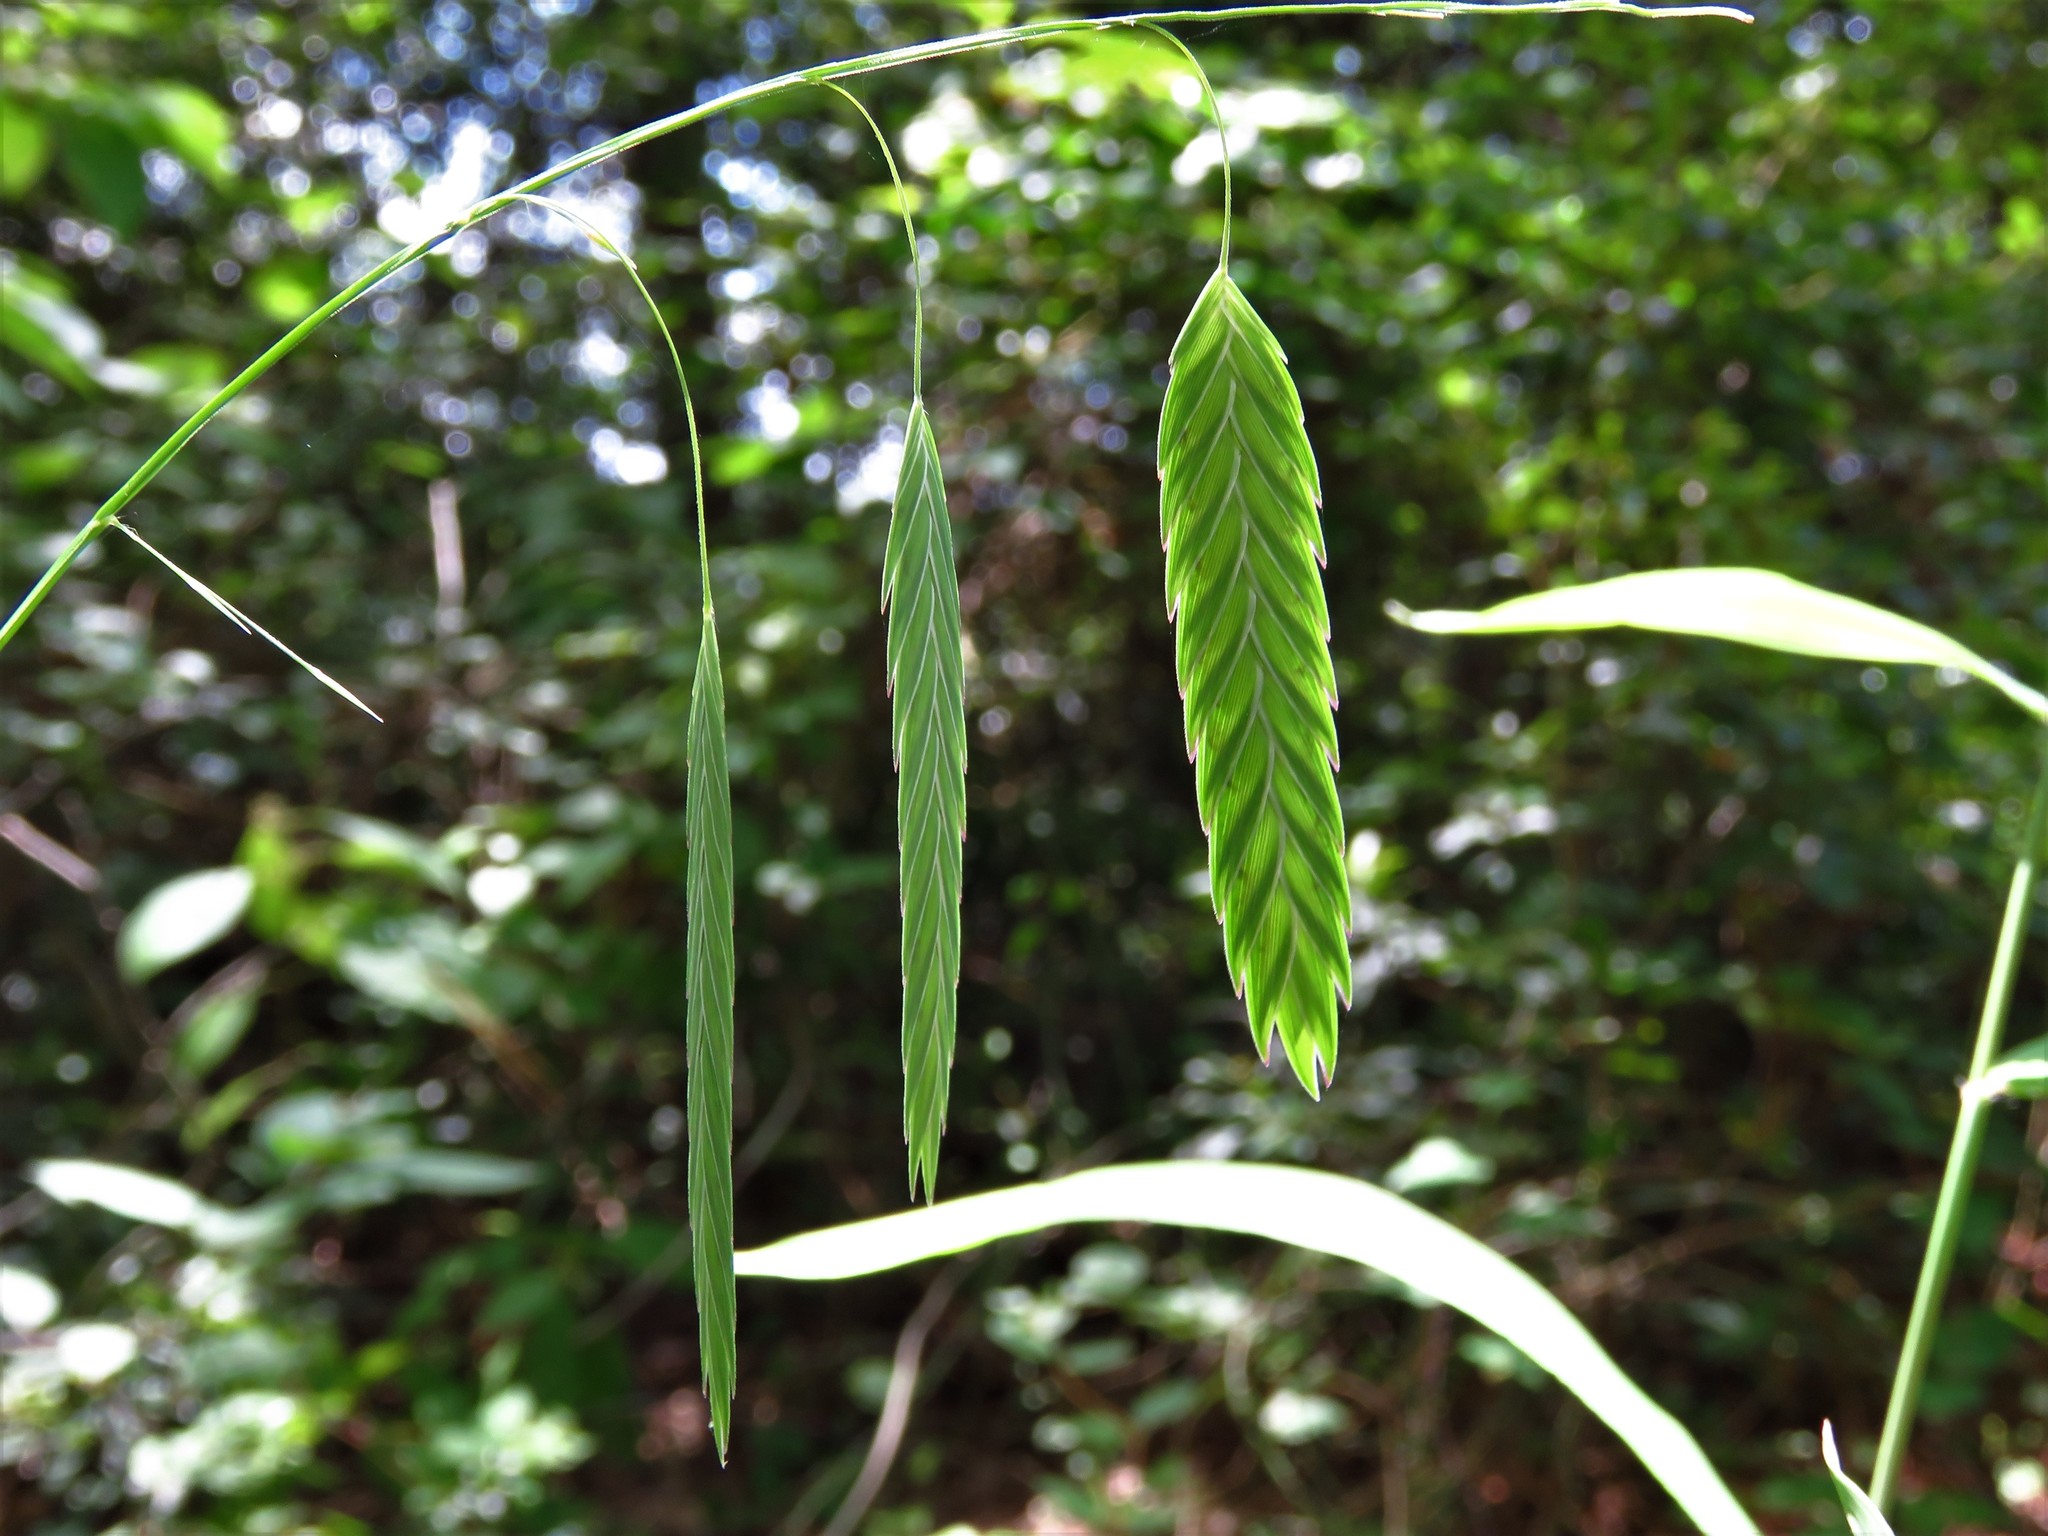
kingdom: Plantae
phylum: Tracheophyta
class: Liliopsida
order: Poales
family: Poaceae
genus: Chasmanthium
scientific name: Chasmanthium latifolium
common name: Broad-leaved chasmanthium
